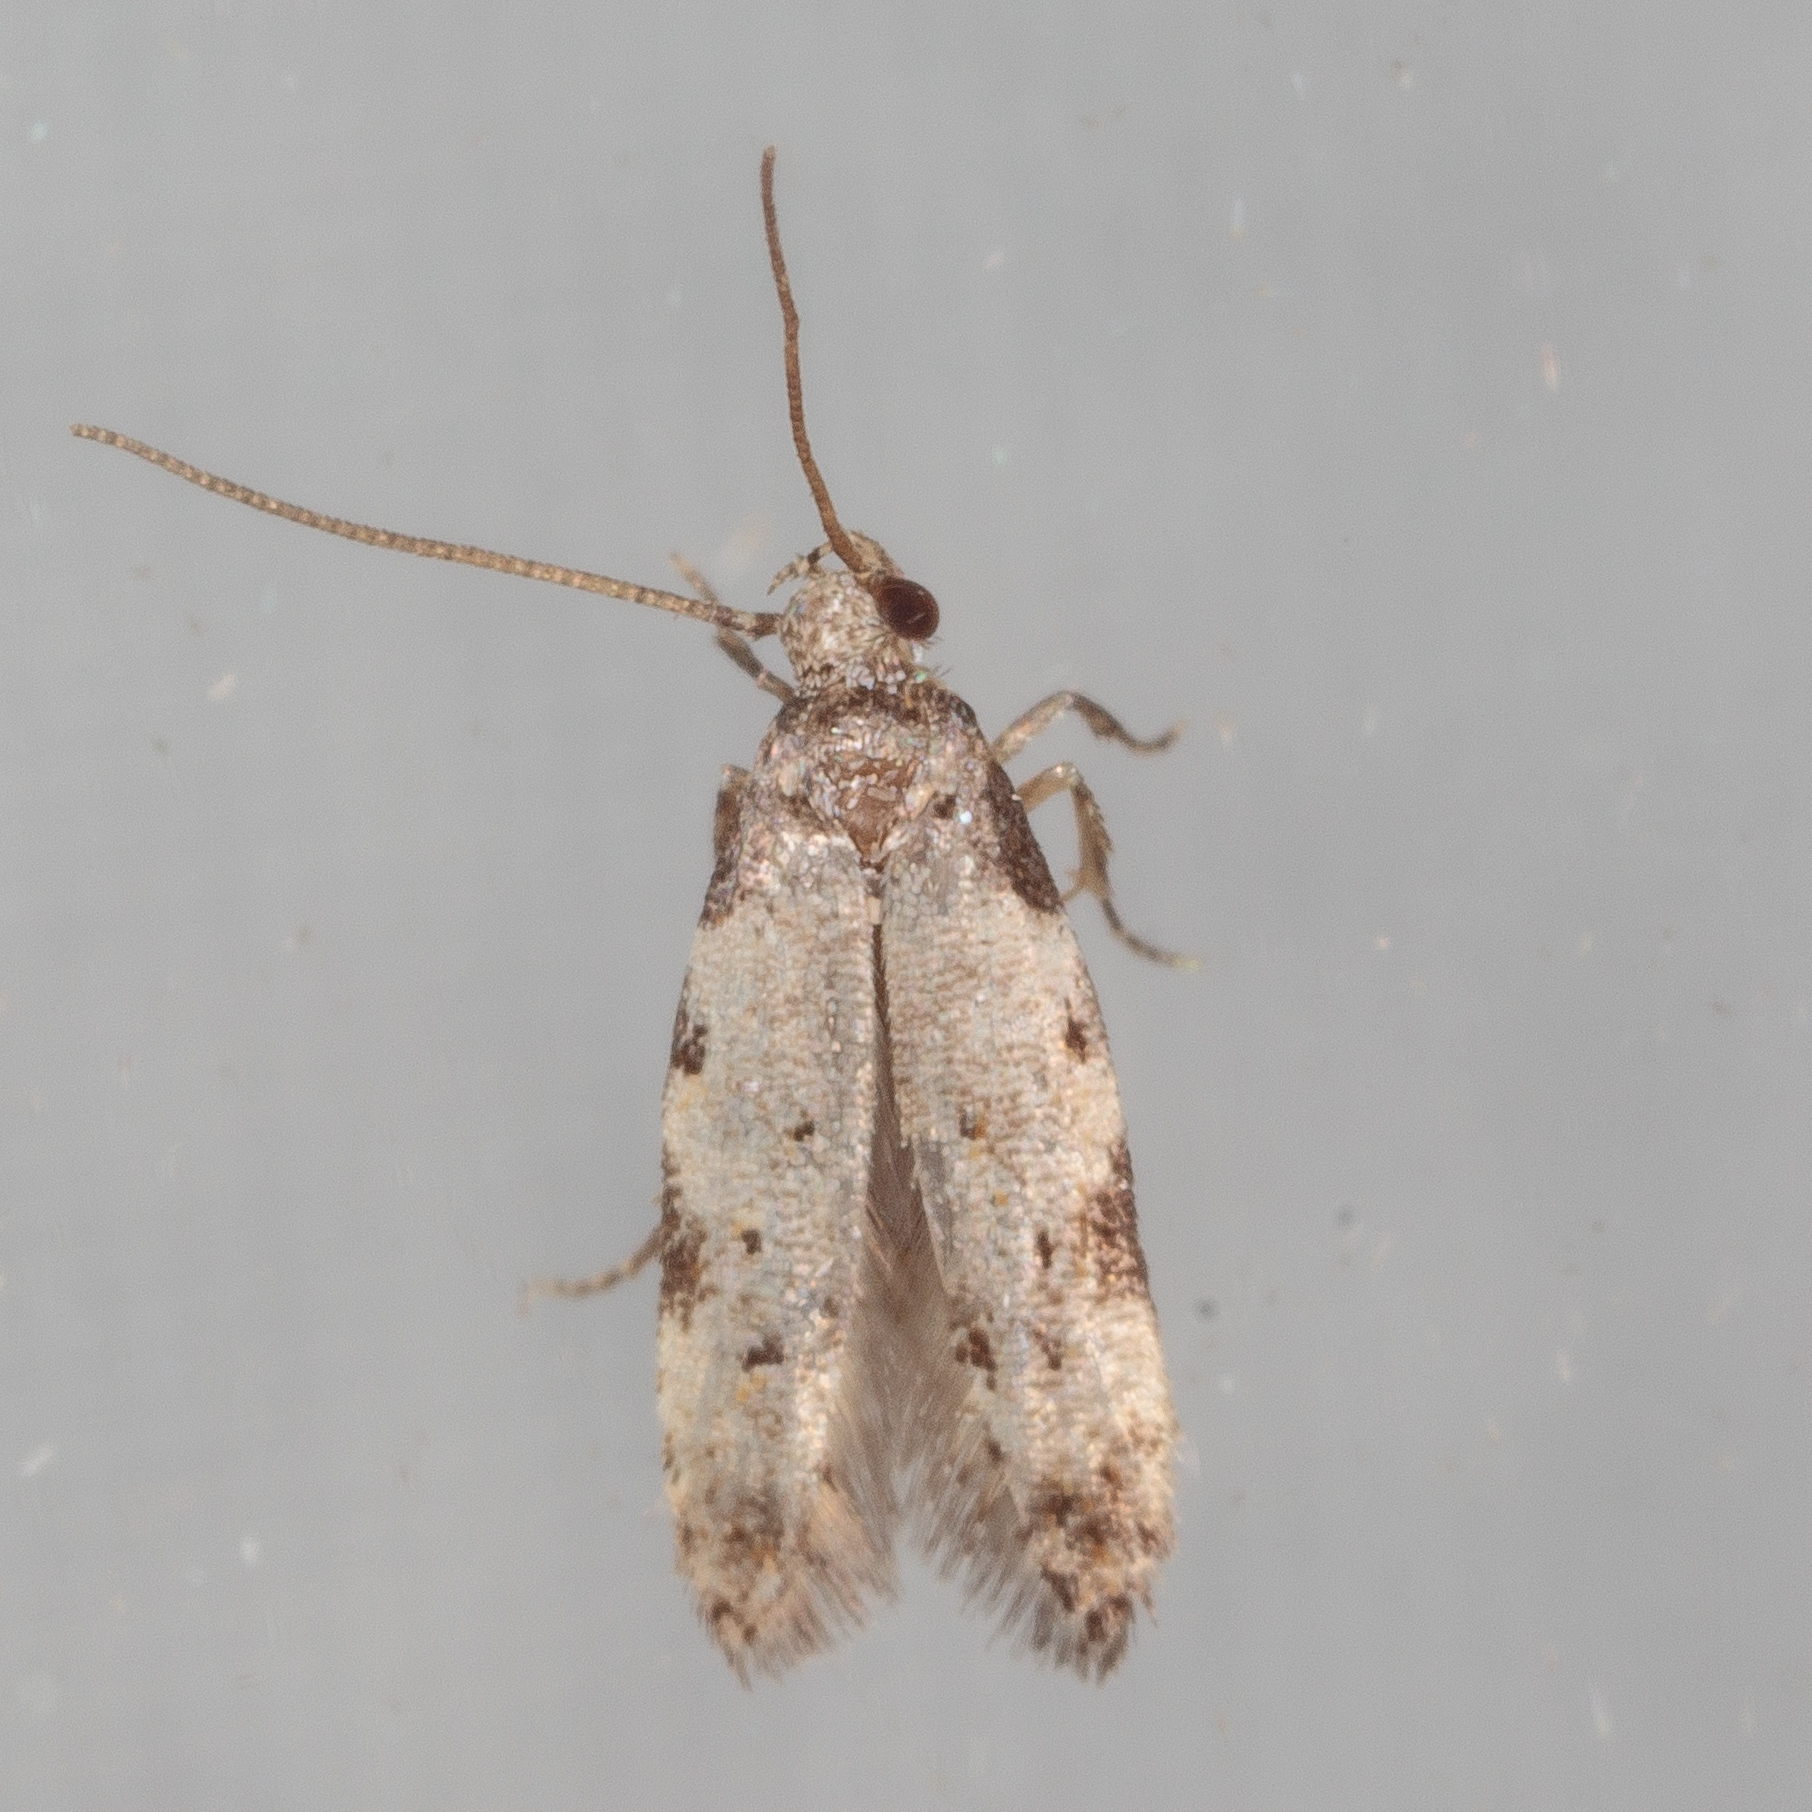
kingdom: Animalia
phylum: Arthropoda
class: Insecta
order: Lepidoptera
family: Autostichidae
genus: Taygete
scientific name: Taygete attributella
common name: Triangle-marked twirler moth
